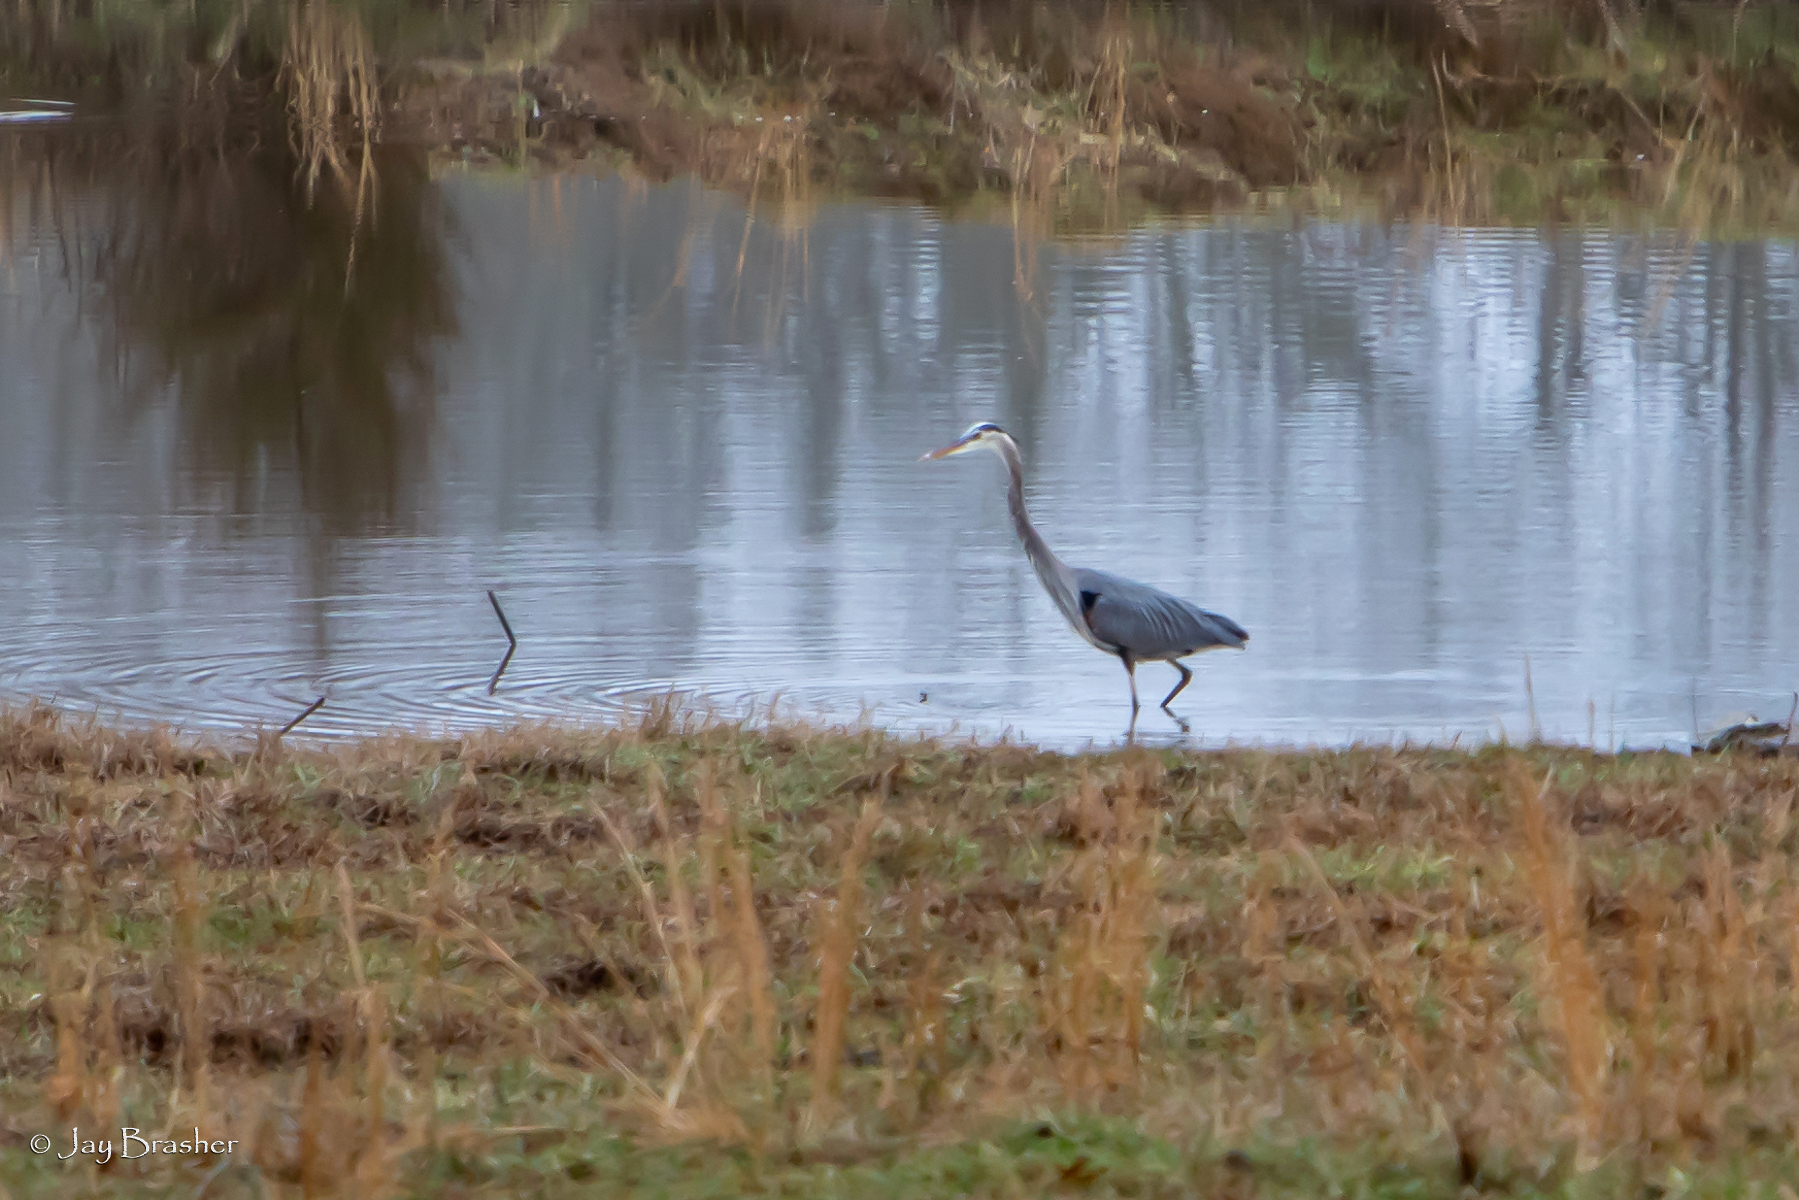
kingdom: Animalia
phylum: Chordata
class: Aves
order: Pelecaniformes
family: Ardeidae
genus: Ardea
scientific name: Ardea herodias
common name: Great blue heron
